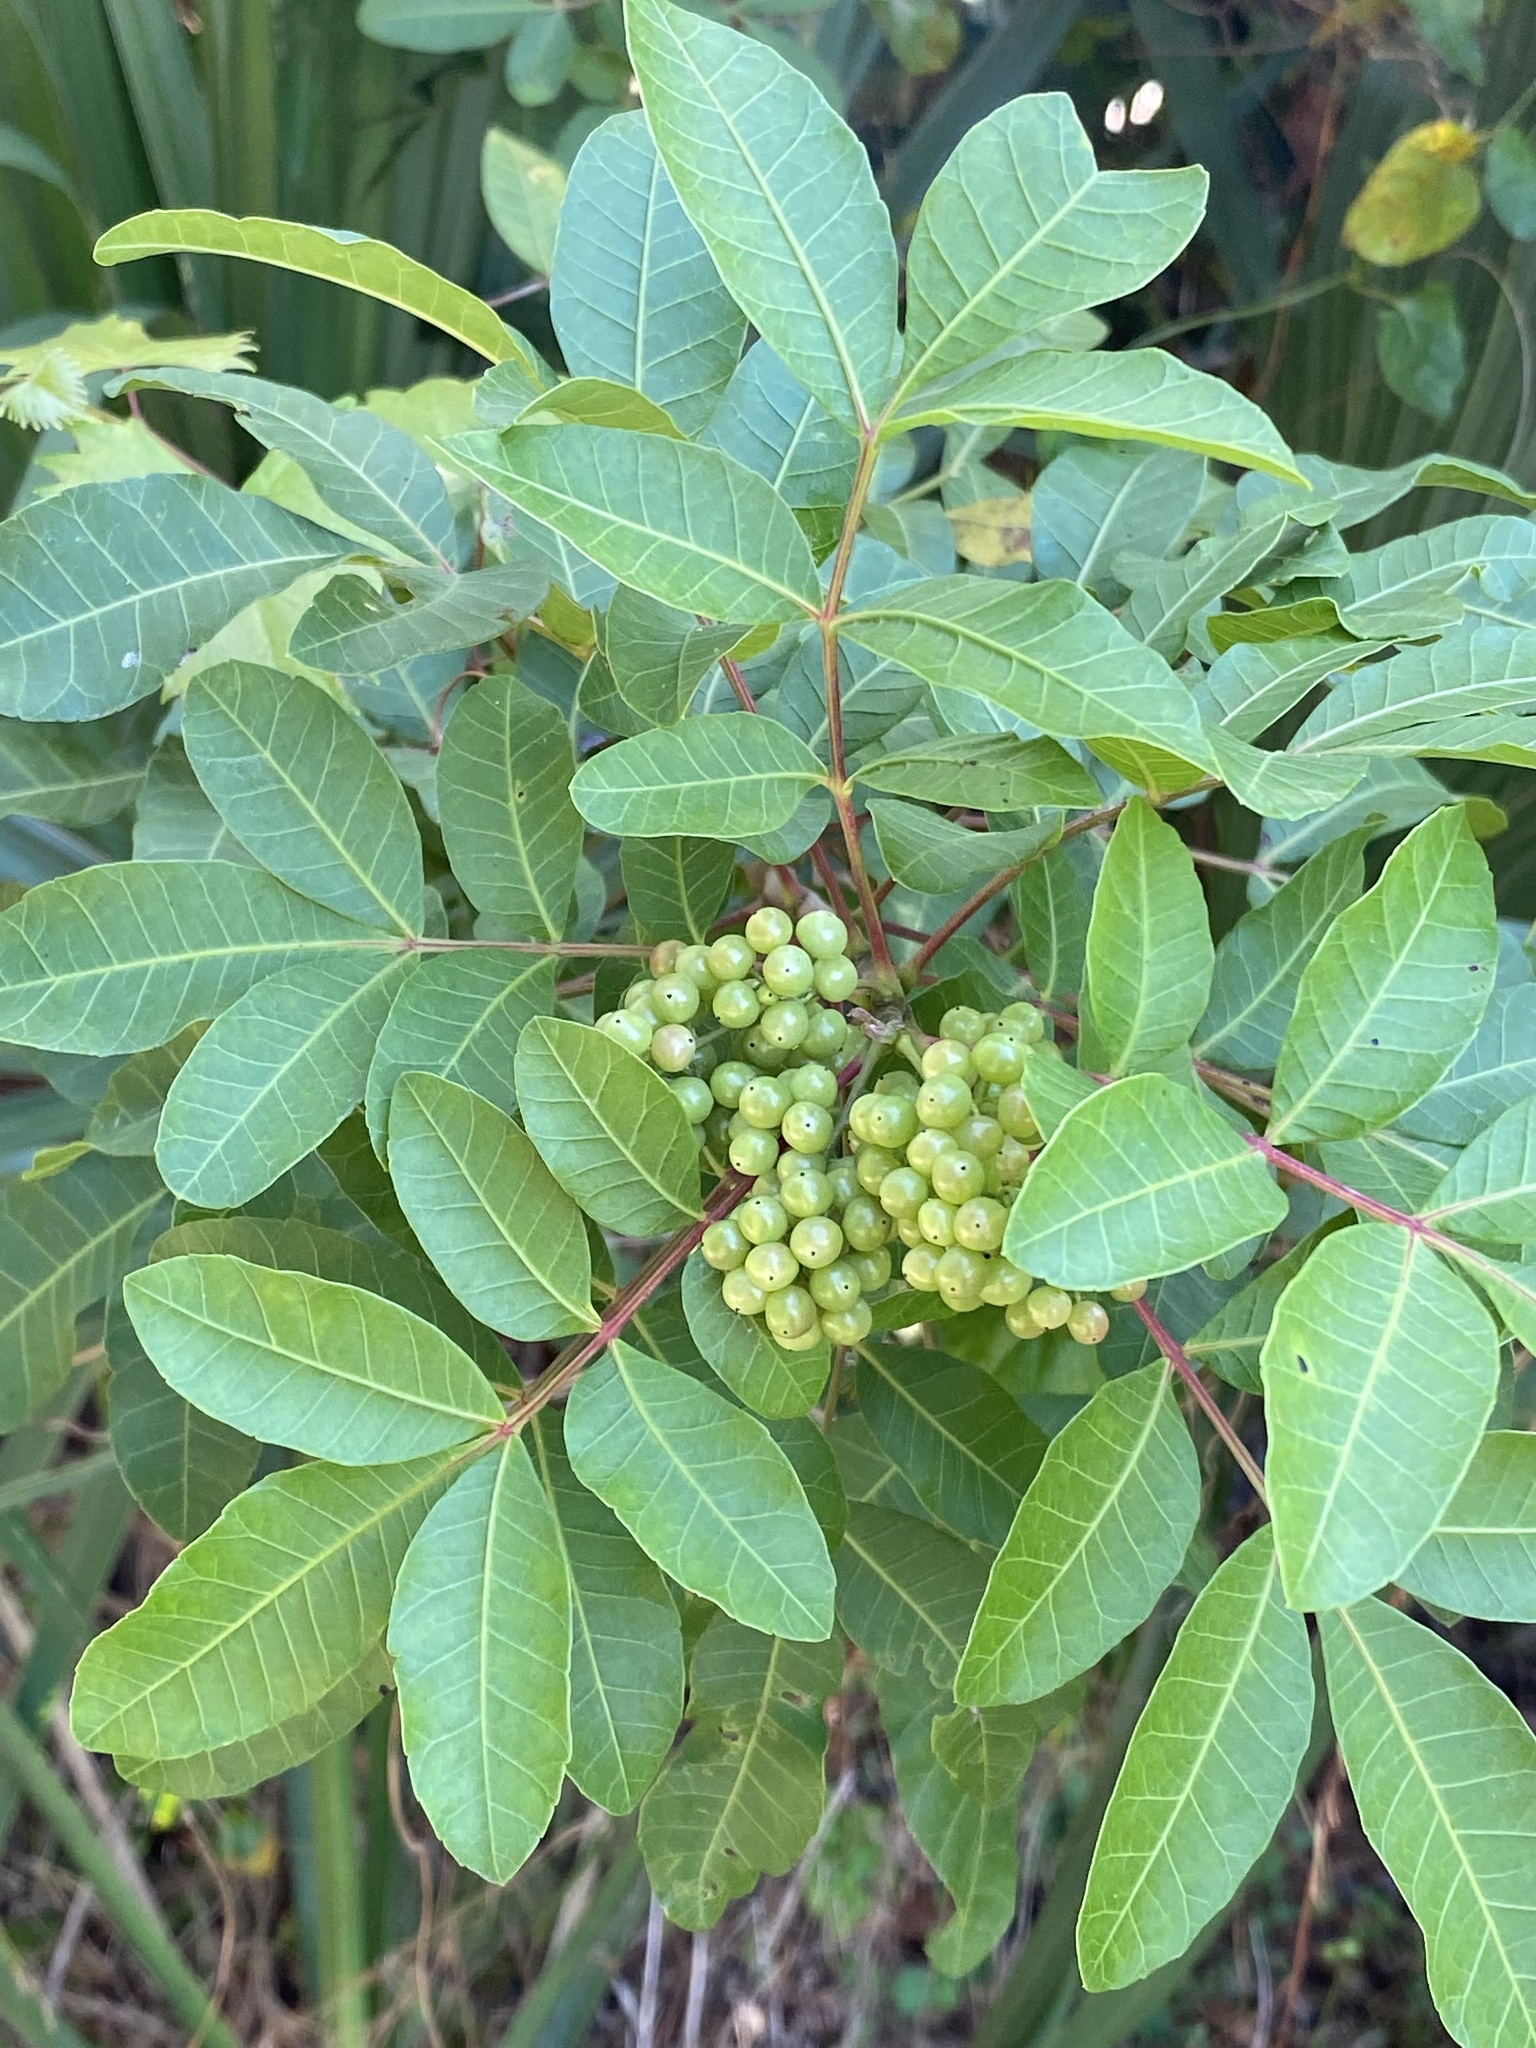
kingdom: Plantae
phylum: Tracheophyta
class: Magnoliopsida
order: Sapindales
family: Anacardiaceae
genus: Schinus
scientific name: Schinus terebinthifolia
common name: Brazilian peppertree
